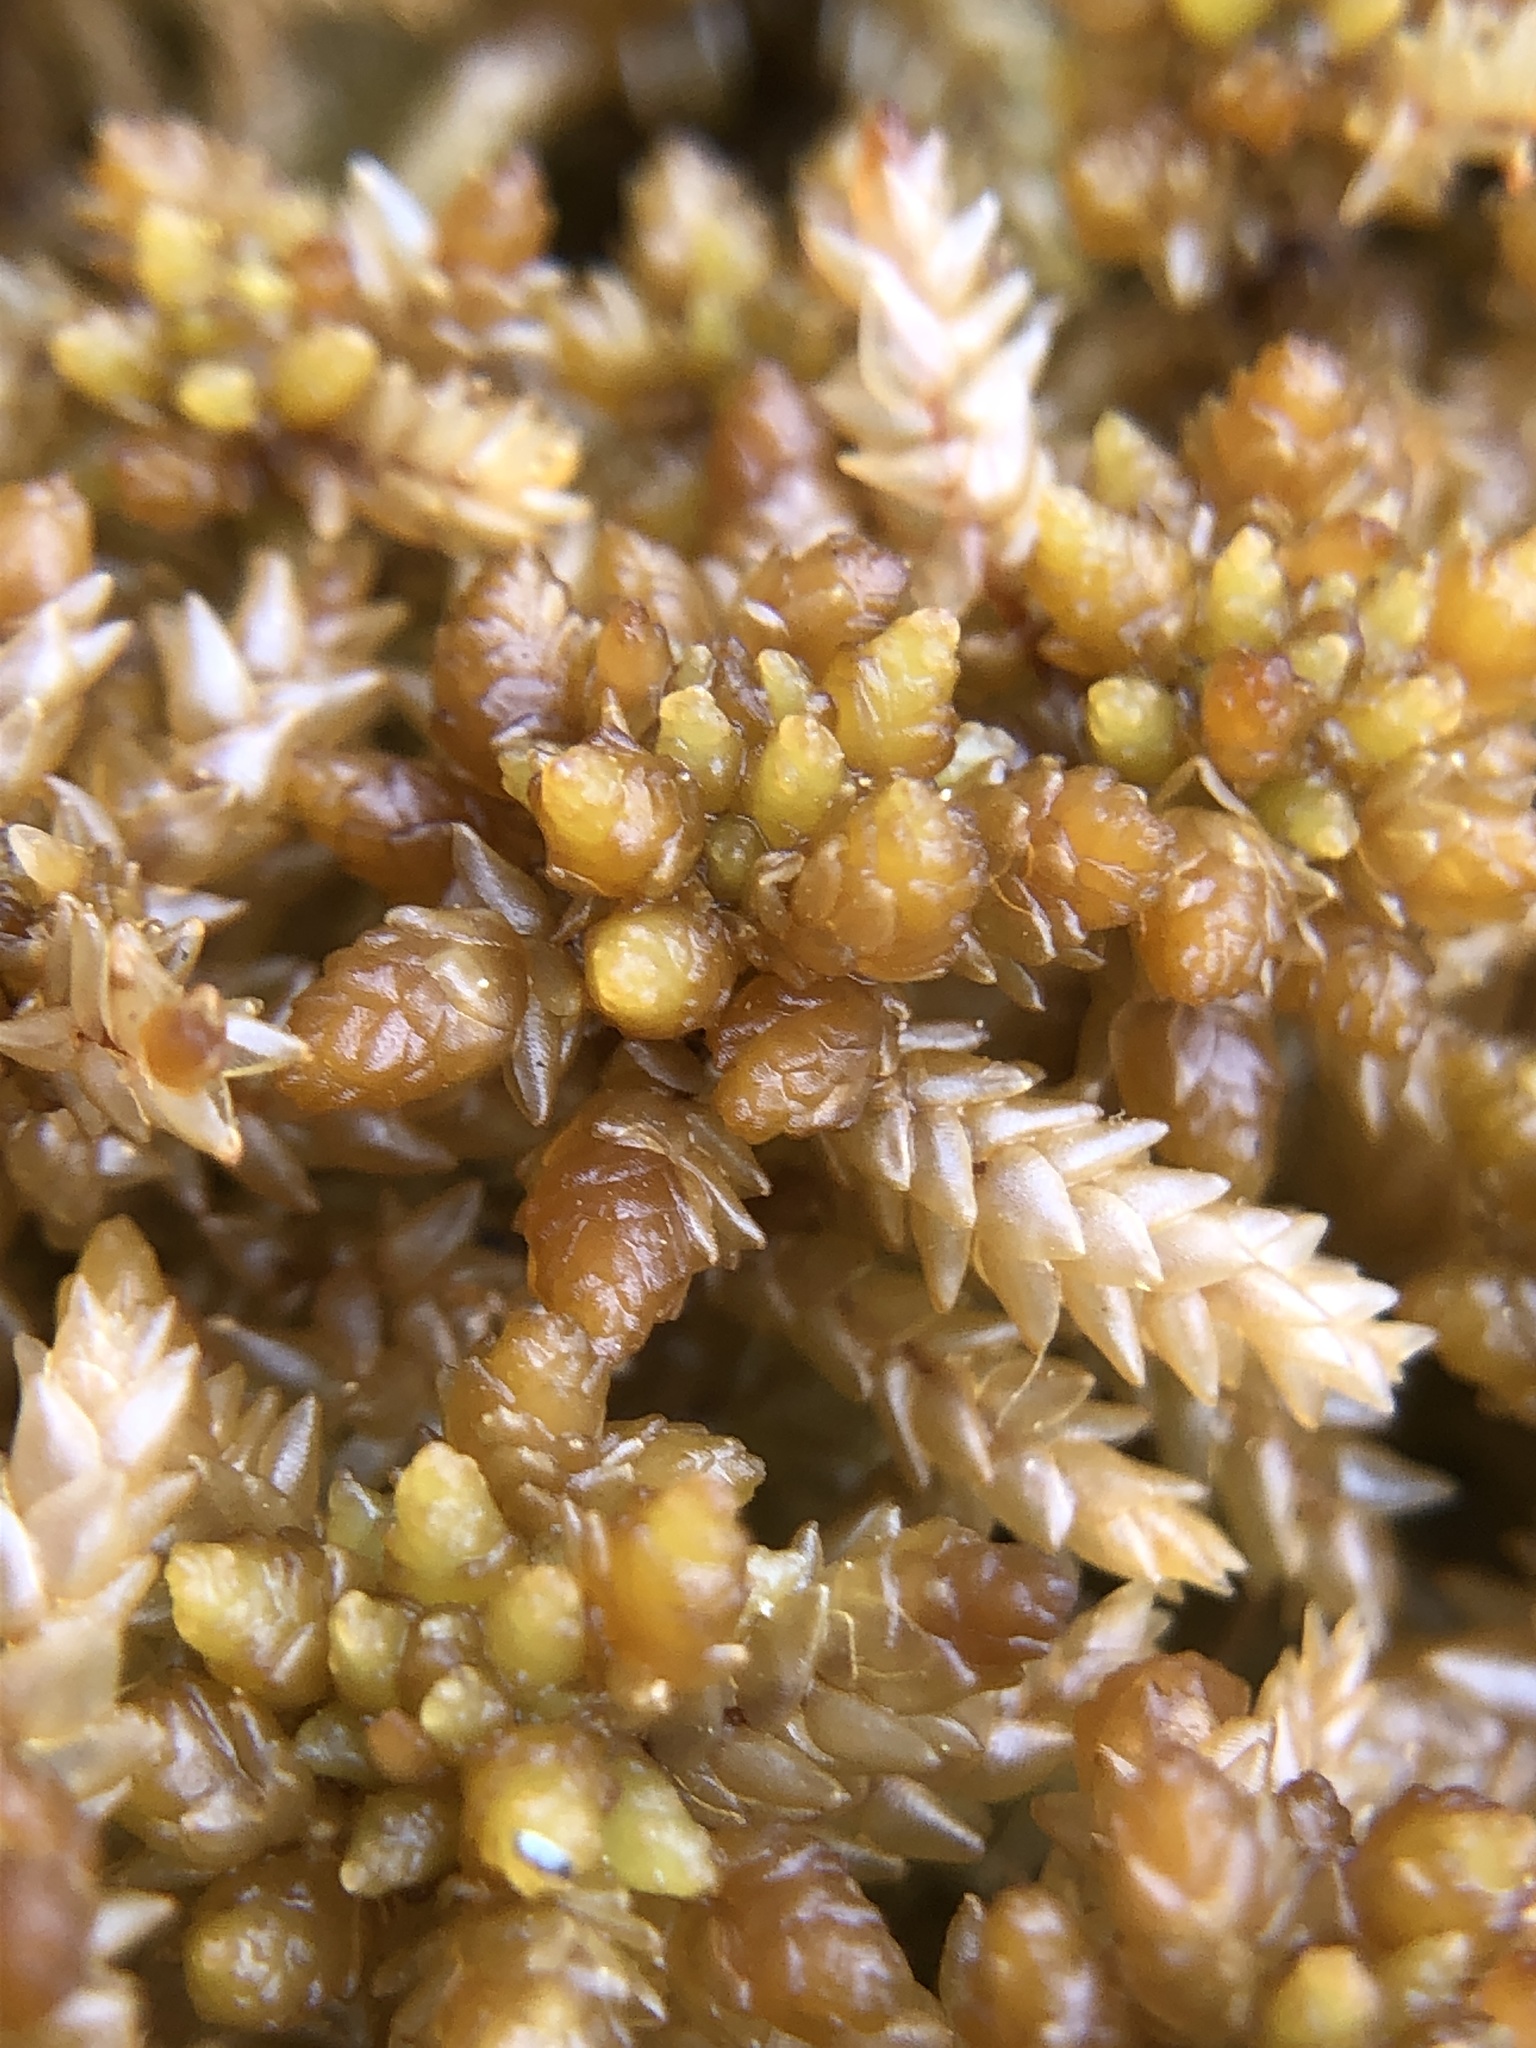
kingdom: Plantae
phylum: Bryophyta
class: Sphagnopsida
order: Sphagnales
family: Sphagnaceae
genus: Sphagnum
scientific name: Sphagnum papillosum
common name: Papillose peat moss
